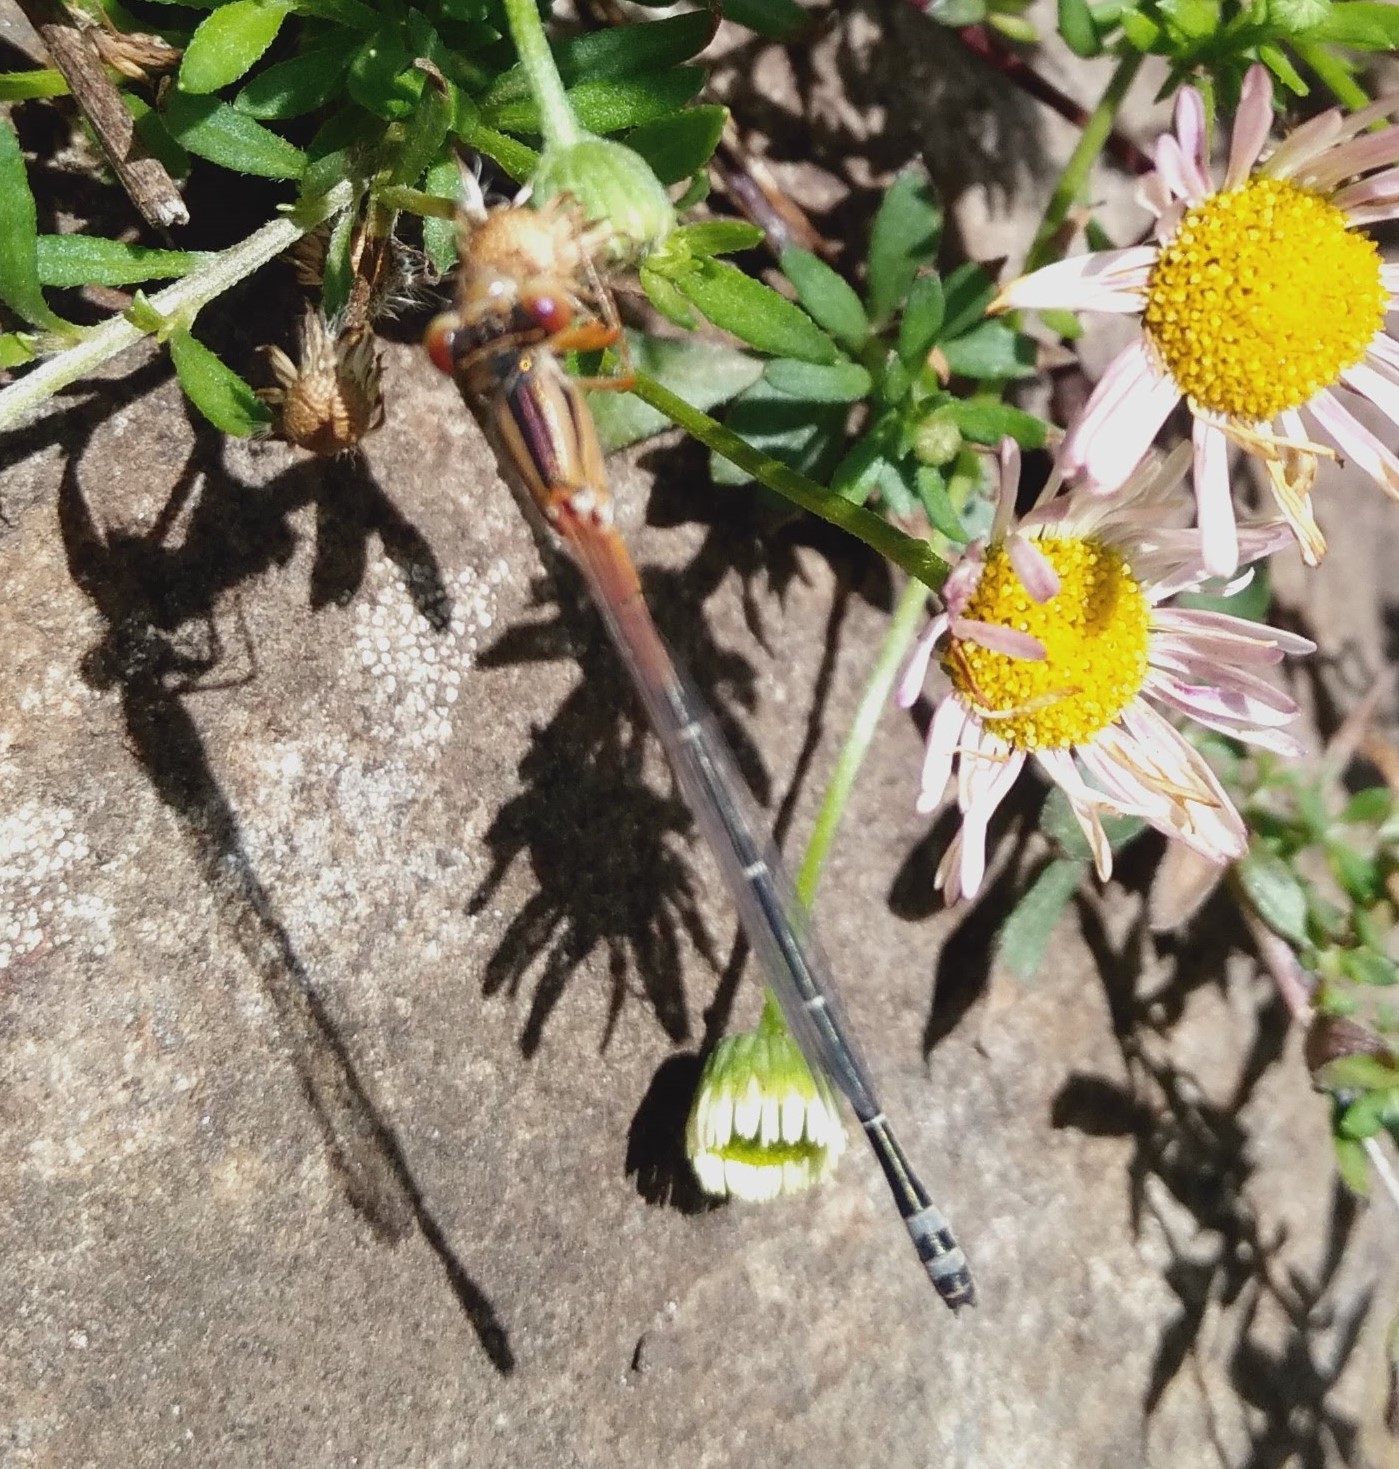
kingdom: Animalia
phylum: Arthropoda
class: Insecta
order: Odonata
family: Coenagrionidae
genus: Xanthagrion
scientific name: Xanthagrion erythroneurum
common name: Red and blue damsel
